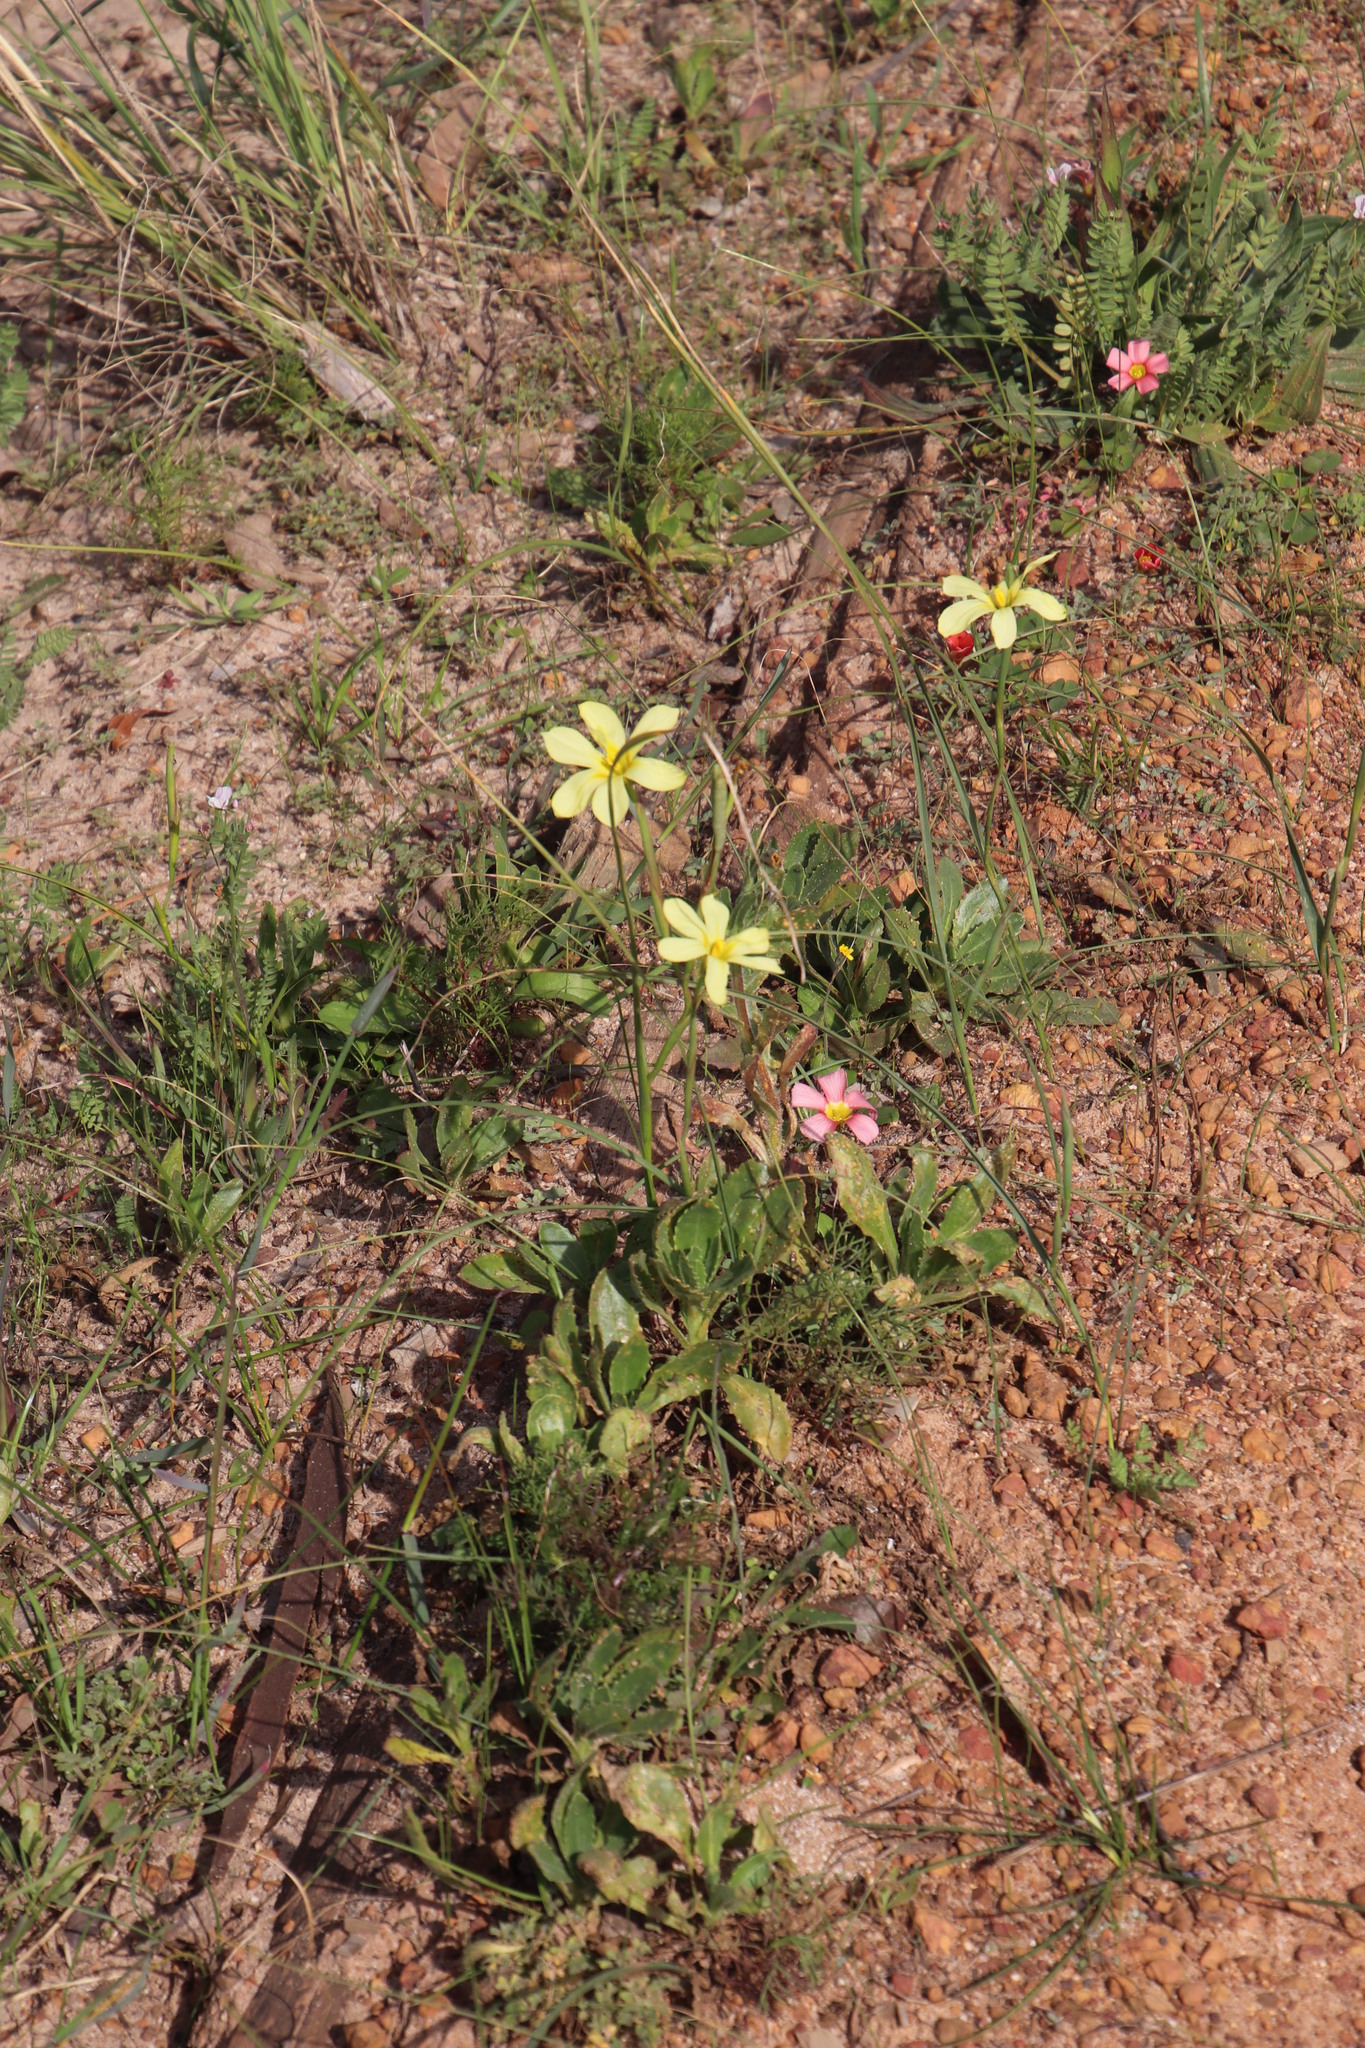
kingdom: Plantae
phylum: Tracheophyta
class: Liliopsida
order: Asparagales
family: Iridaceae
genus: Moraea
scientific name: Moraea collina
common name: Cape-tulip
